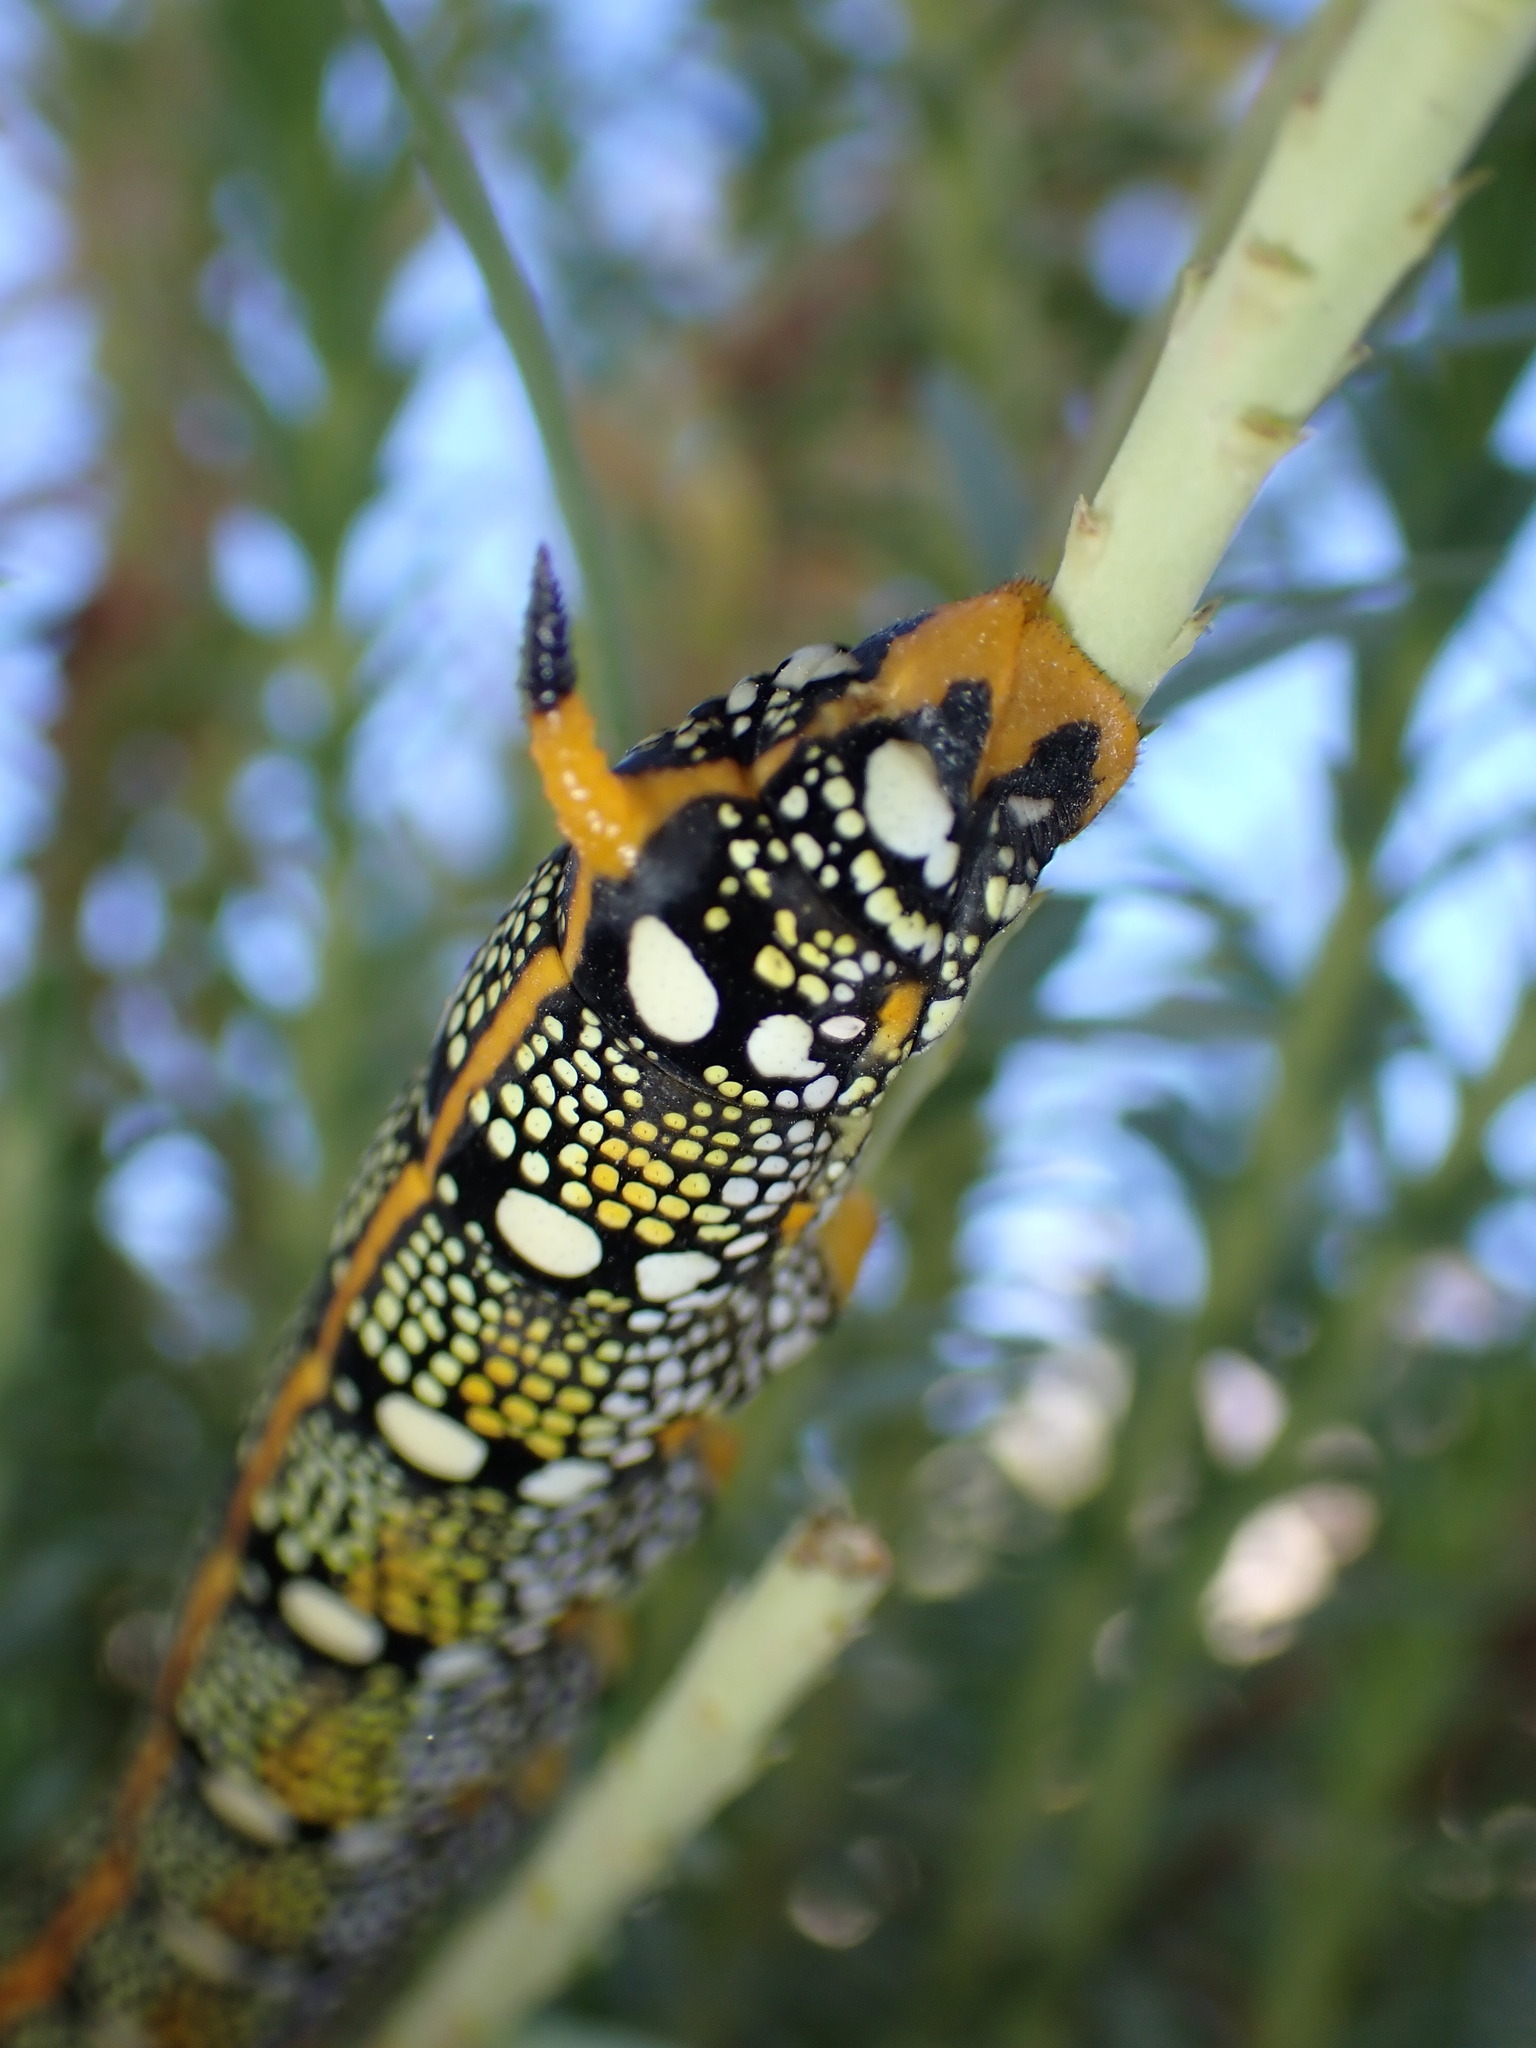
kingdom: Animalia
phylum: Arthropoda
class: Insecta
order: Lepidoptera
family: Sphingidae
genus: Hyles
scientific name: Hyles euphorbiae
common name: Spurge hawk-moth
